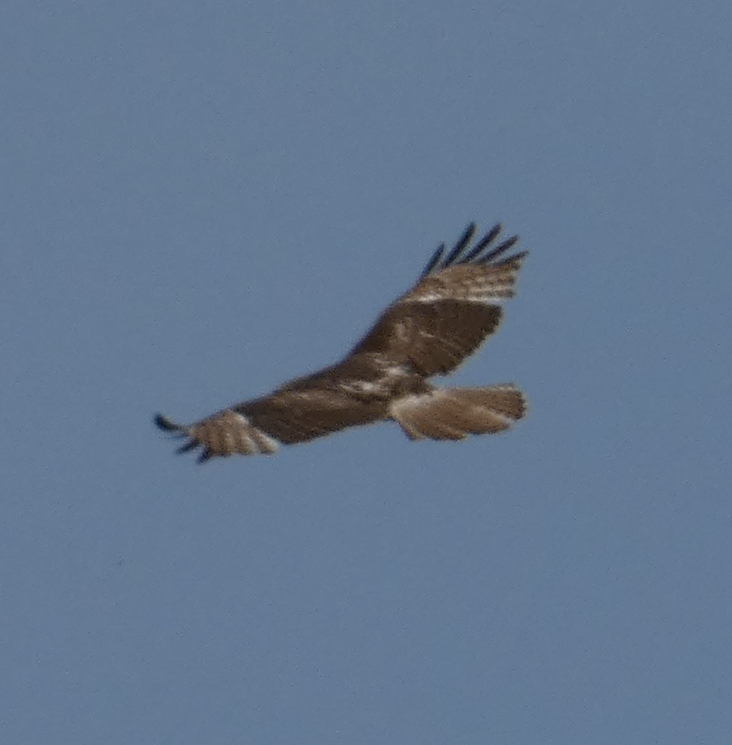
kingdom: Animalia
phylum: Chordata
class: Aves
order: Accipitriformes
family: Accipitridae
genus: Buteo
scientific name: Buteo jamaicensis
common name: Red-tailed hawk
